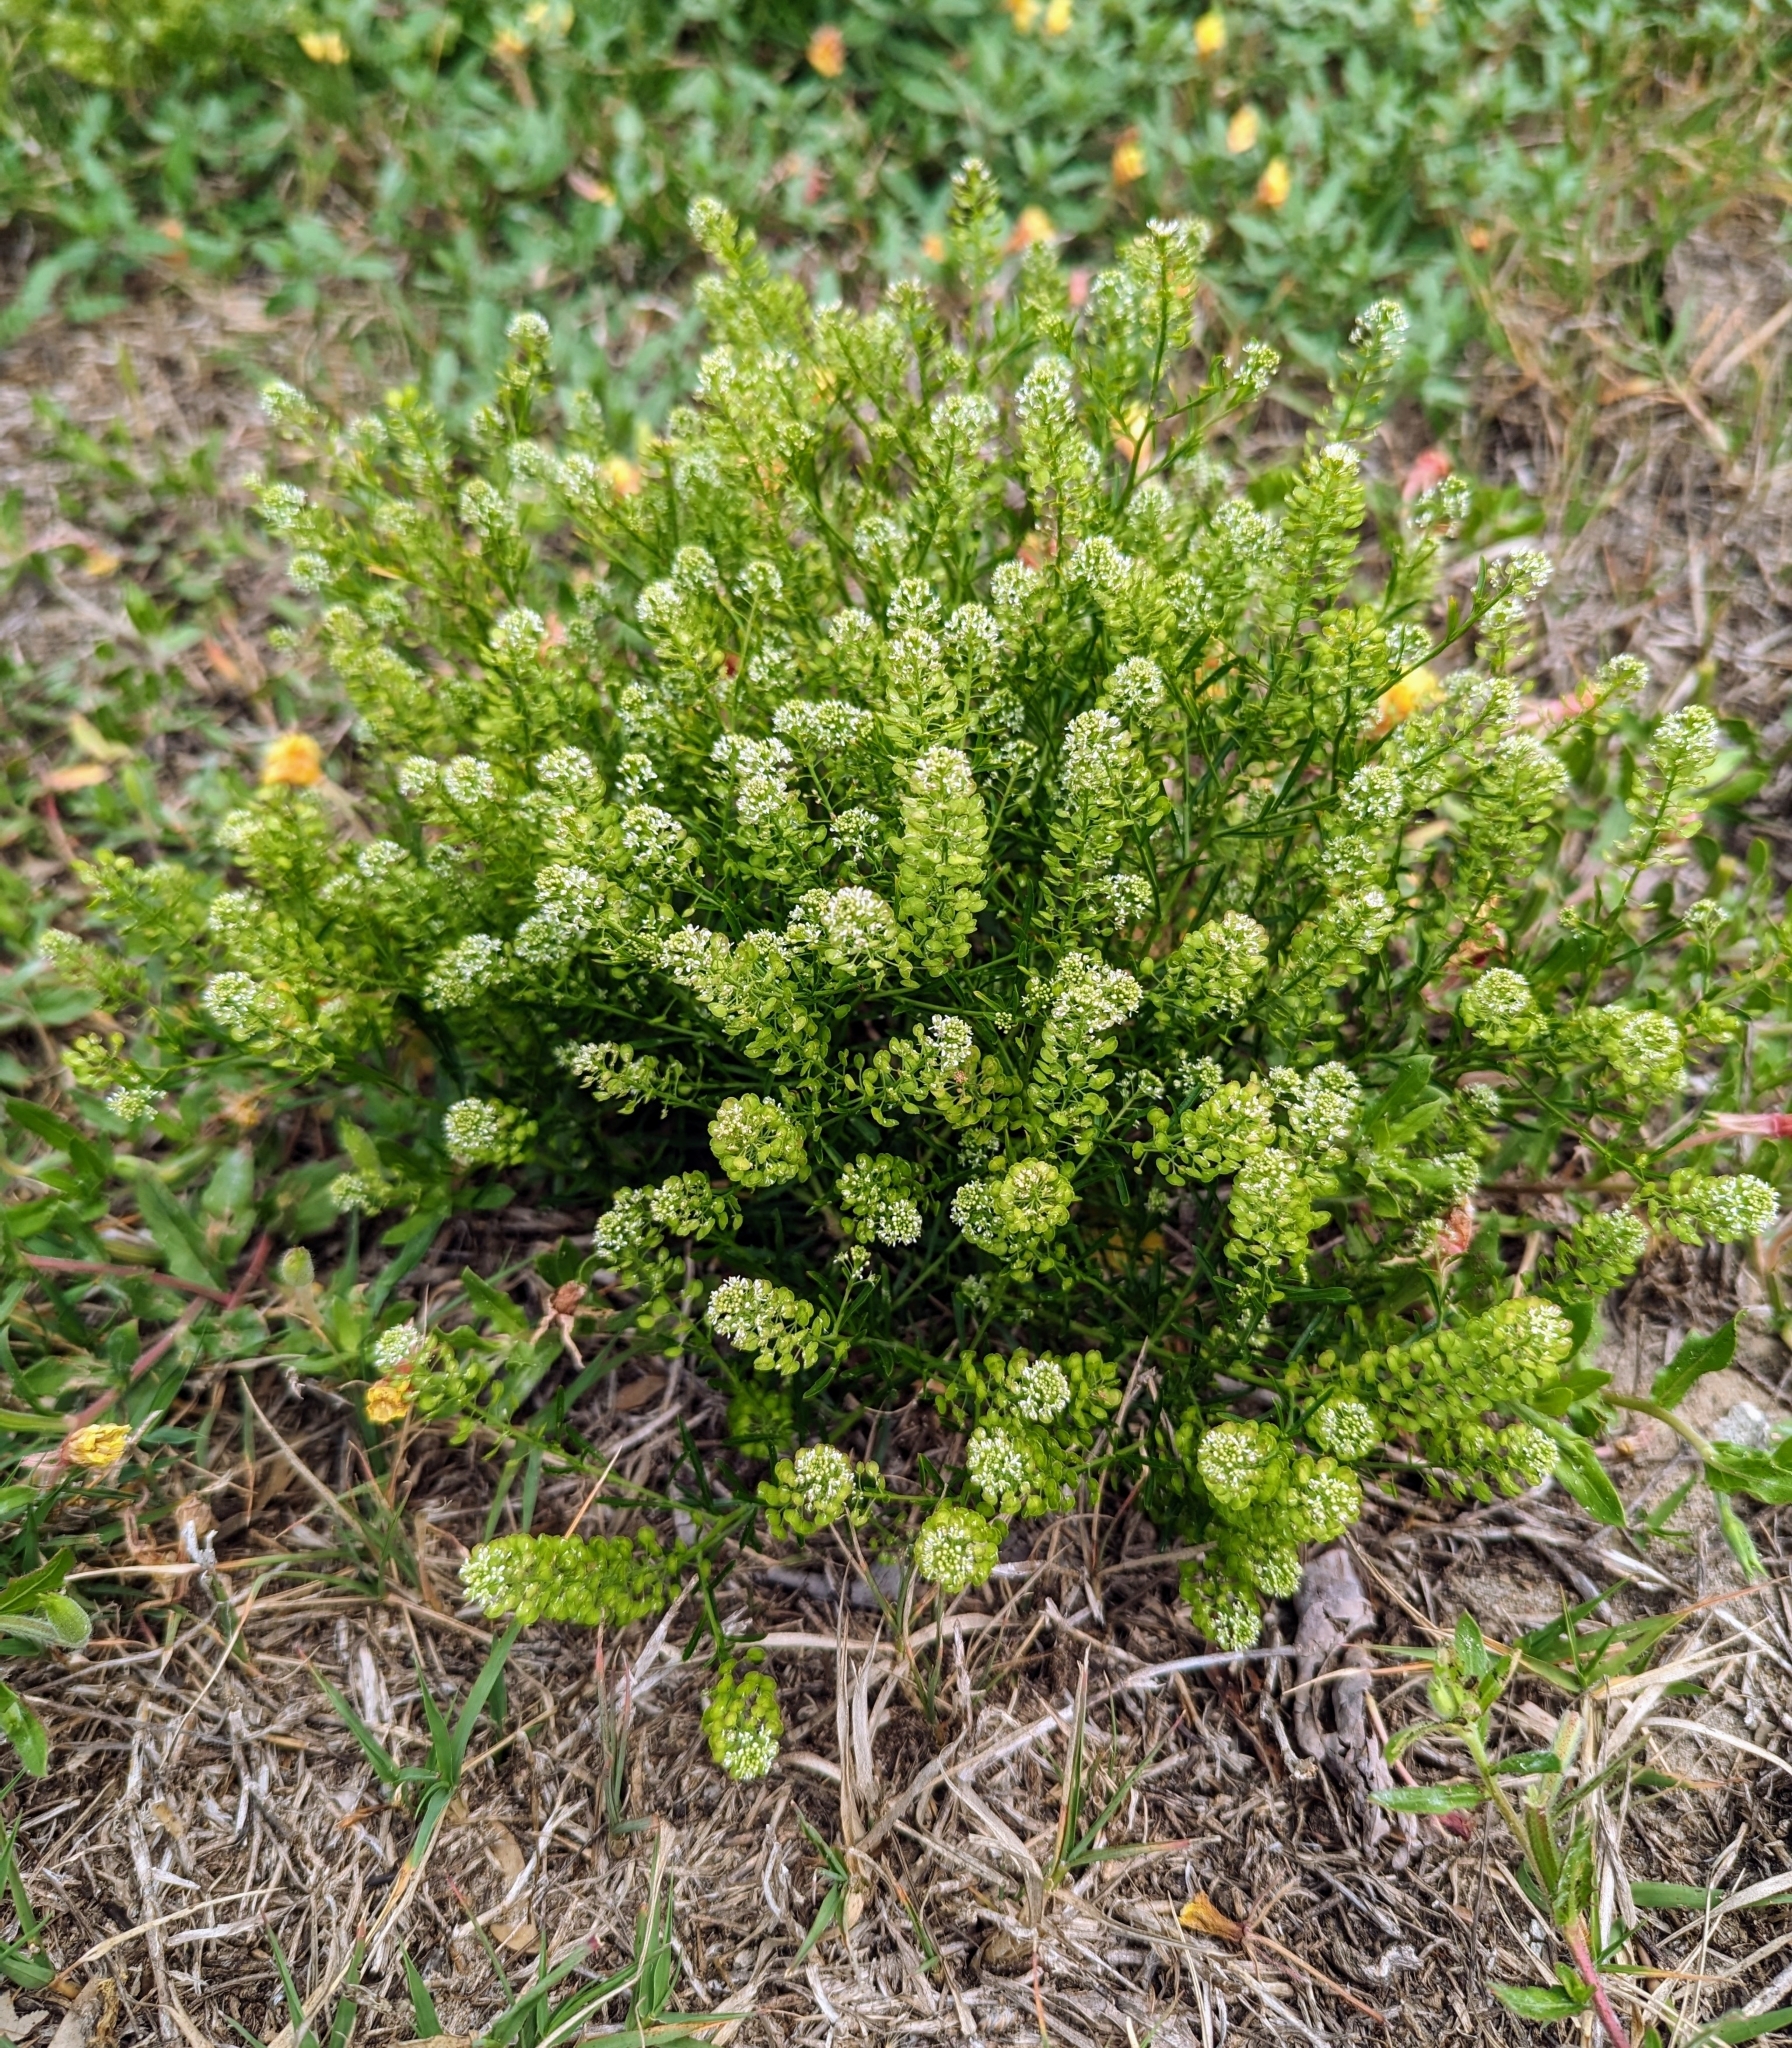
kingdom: Plantae
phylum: Tracheophyta
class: Magnoliopsida
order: Brassicales
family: Brassicaceae
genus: Lepidium
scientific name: Lepidium virginicum
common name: Least pepperwort
